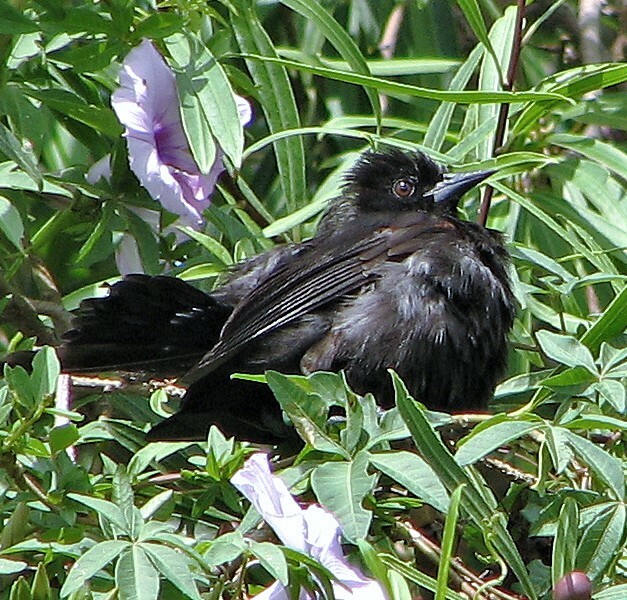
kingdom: Animalia
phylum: Chordata
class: Aves
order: Passeriformes
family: Icteridae
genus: Icterus
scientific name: Icterus cayanensis
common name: Epaulet oriole
